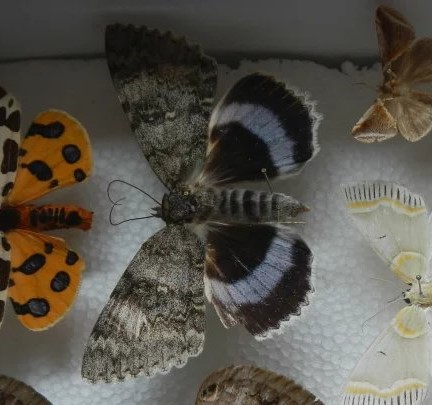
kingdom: Animalia
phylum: Arthropoda
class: Insecta
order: Lepidoptera
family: Erebidae
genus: Catocala
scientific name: Catocala fraxini
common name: Clifden nonpareil
